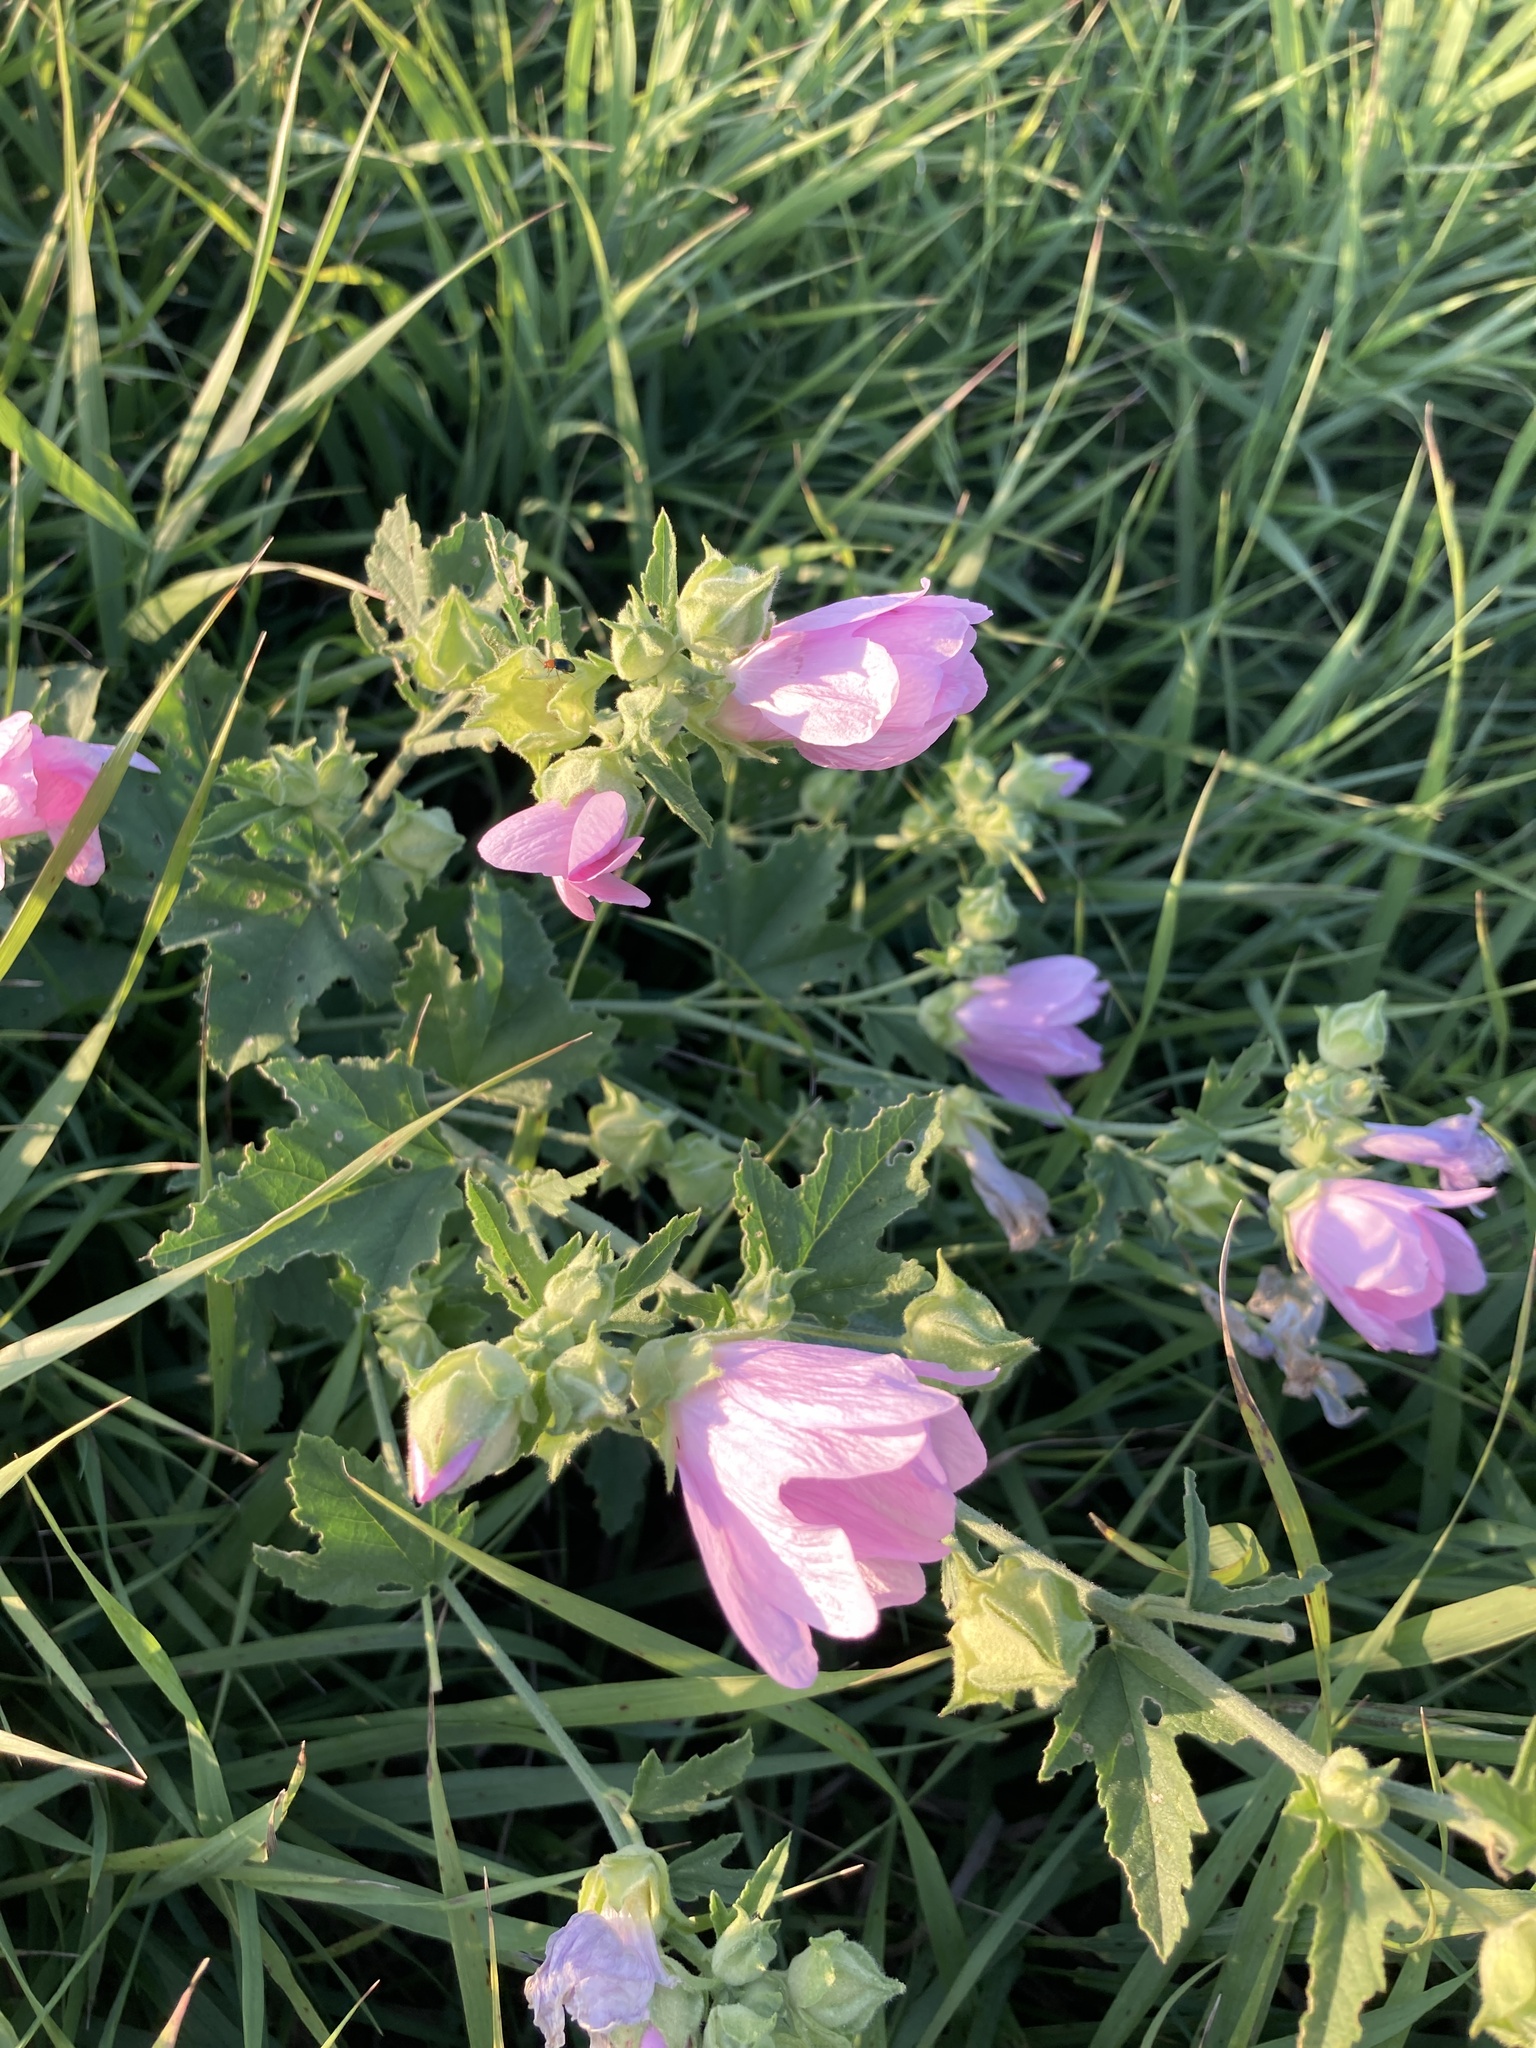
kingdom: Plantae
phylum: Tracheophyta
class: Magnoliopsida
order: Malvales
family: Malvaceae
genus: Malva
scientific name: Malva thuringiaca
